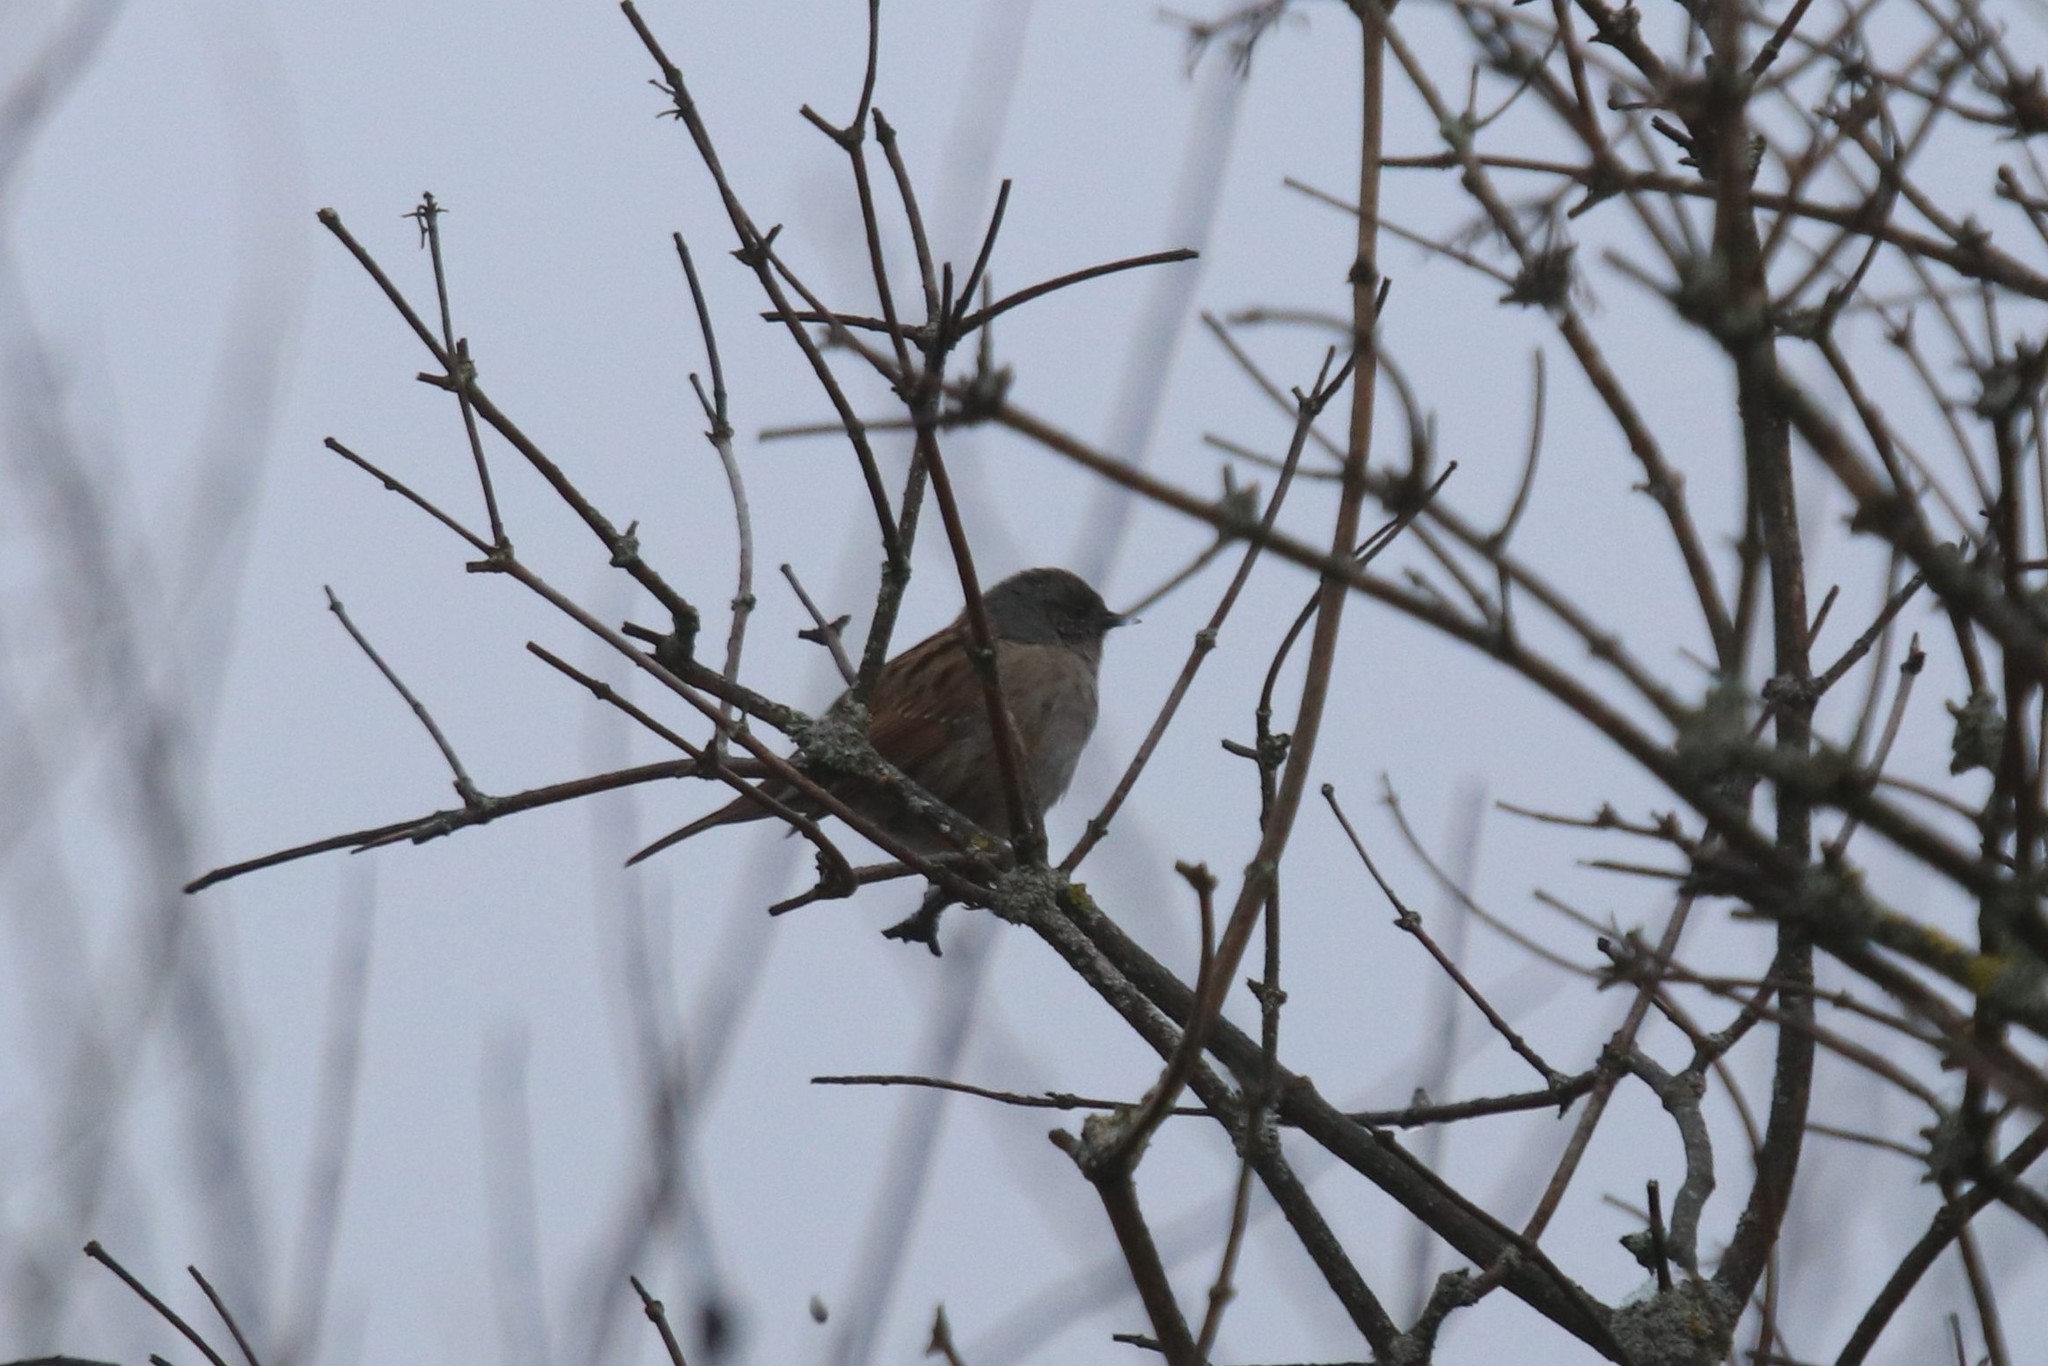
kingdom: Animalia
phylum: Chordata
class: Aves
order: Passeriformes
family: Prunellidae
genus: Prunella
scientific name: Prunella modularis
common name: Dunnock
